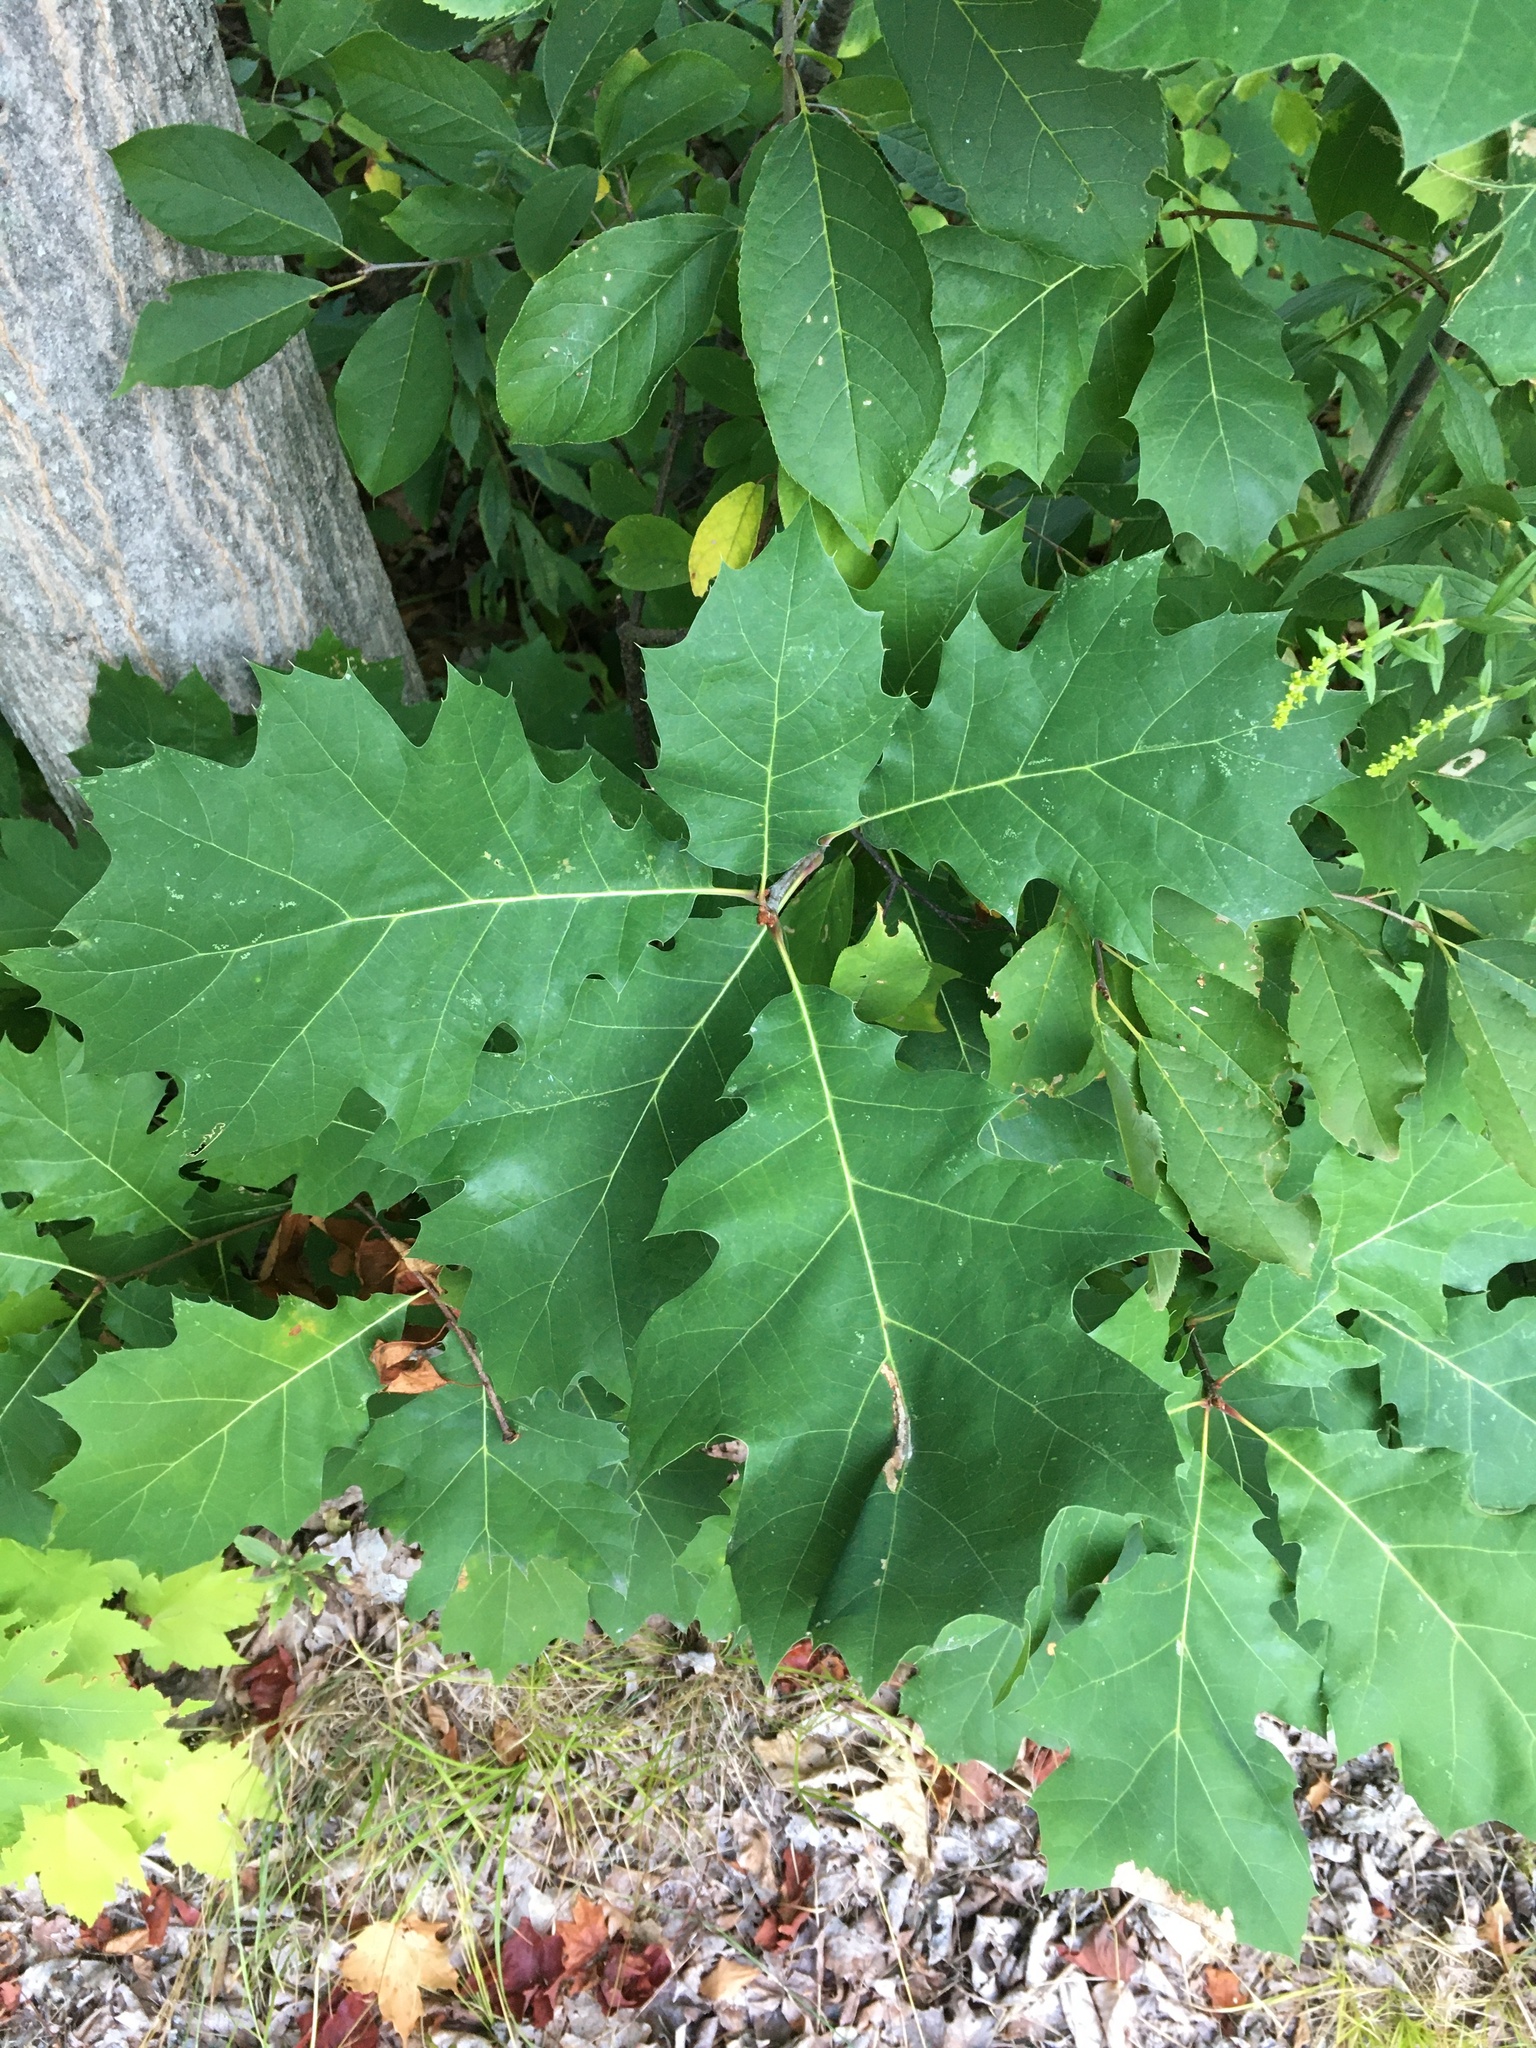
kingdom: Plantae
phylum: Tracheophyta
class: Magnoliopsida
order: Fagales
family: Fagaceae
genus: Quercus
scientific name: Quercus rubra
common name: Red oak
